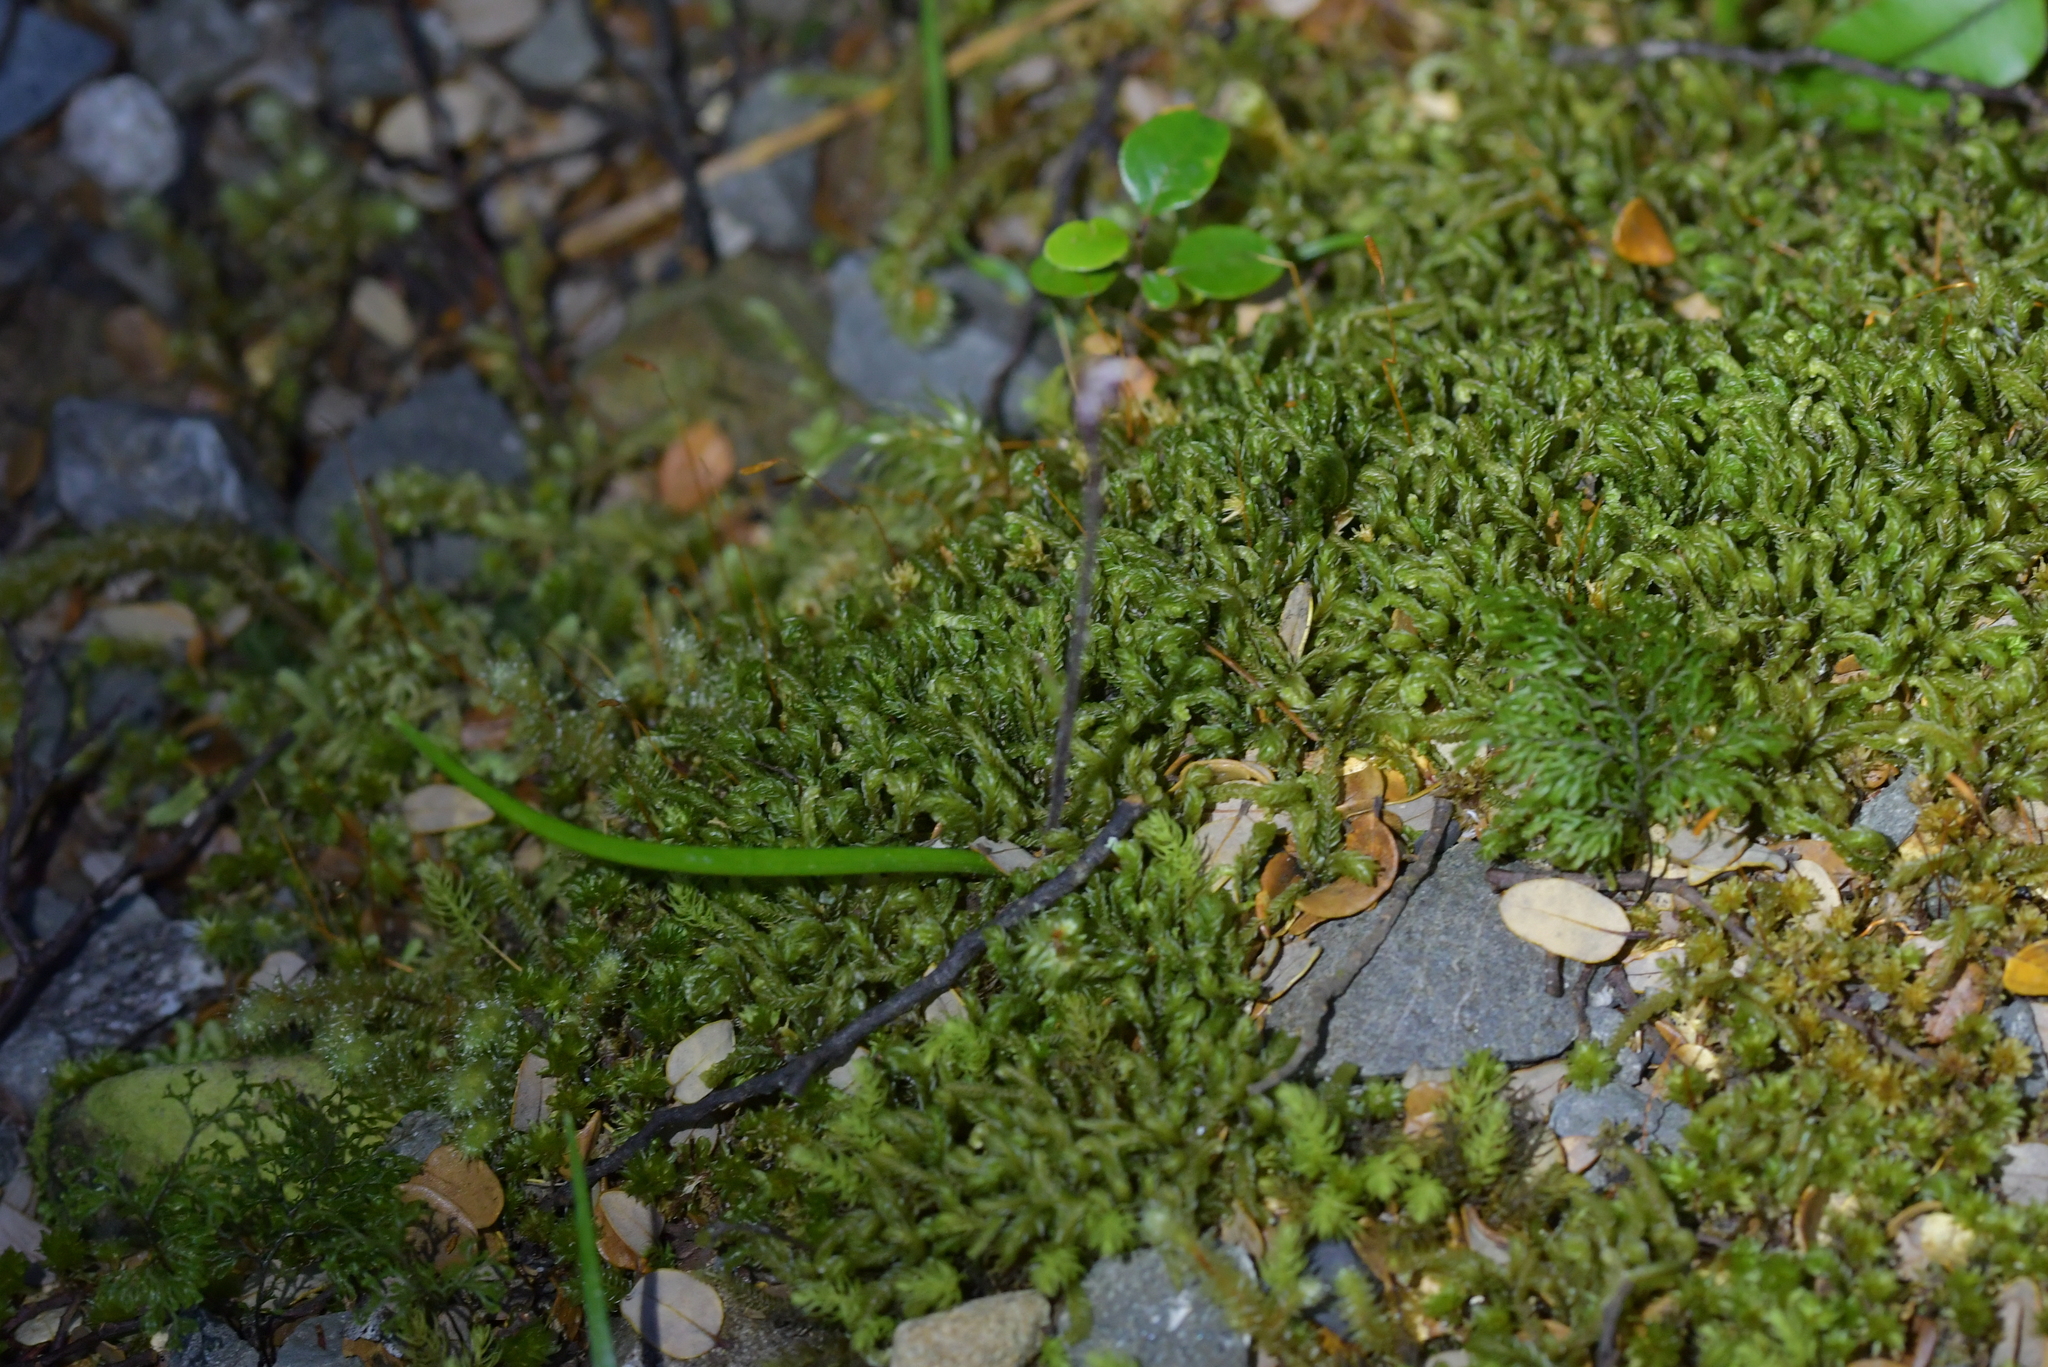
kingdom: Plantae
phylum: Tracheophyta
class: Liliopsida
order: Asparagales
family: Orchidaceae
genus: Caladenia
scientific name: Caladenia chlorostyla
